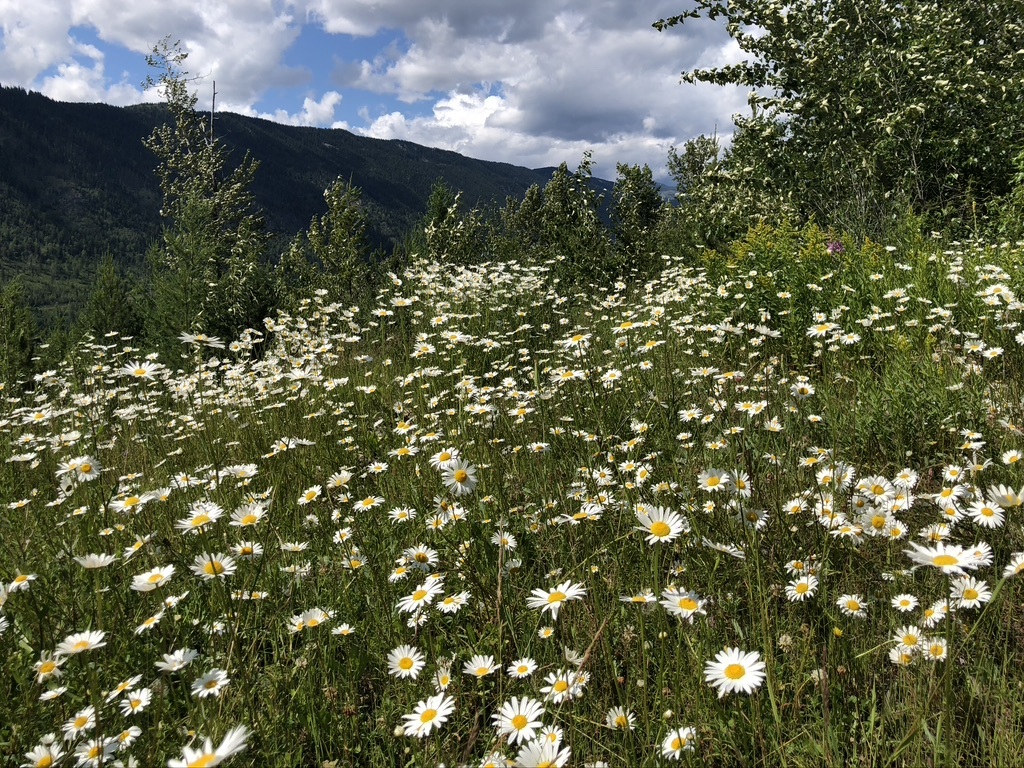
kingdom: Plantae
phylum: Tracheophyta
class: Magnoliopsida
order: Asterales
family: Asteraceae
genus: Leucanthemum
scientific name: Leucanthemum vulgare
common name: Oxeye daisy
